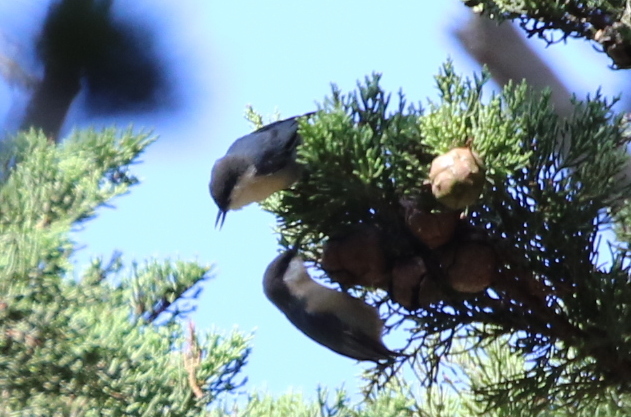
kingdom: Animalia
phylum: Chordata
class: Aves
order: Passeriformes
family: Sittidae
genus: Sitta
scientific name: Sitta pygmaea
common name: Pygmy nuthatch
